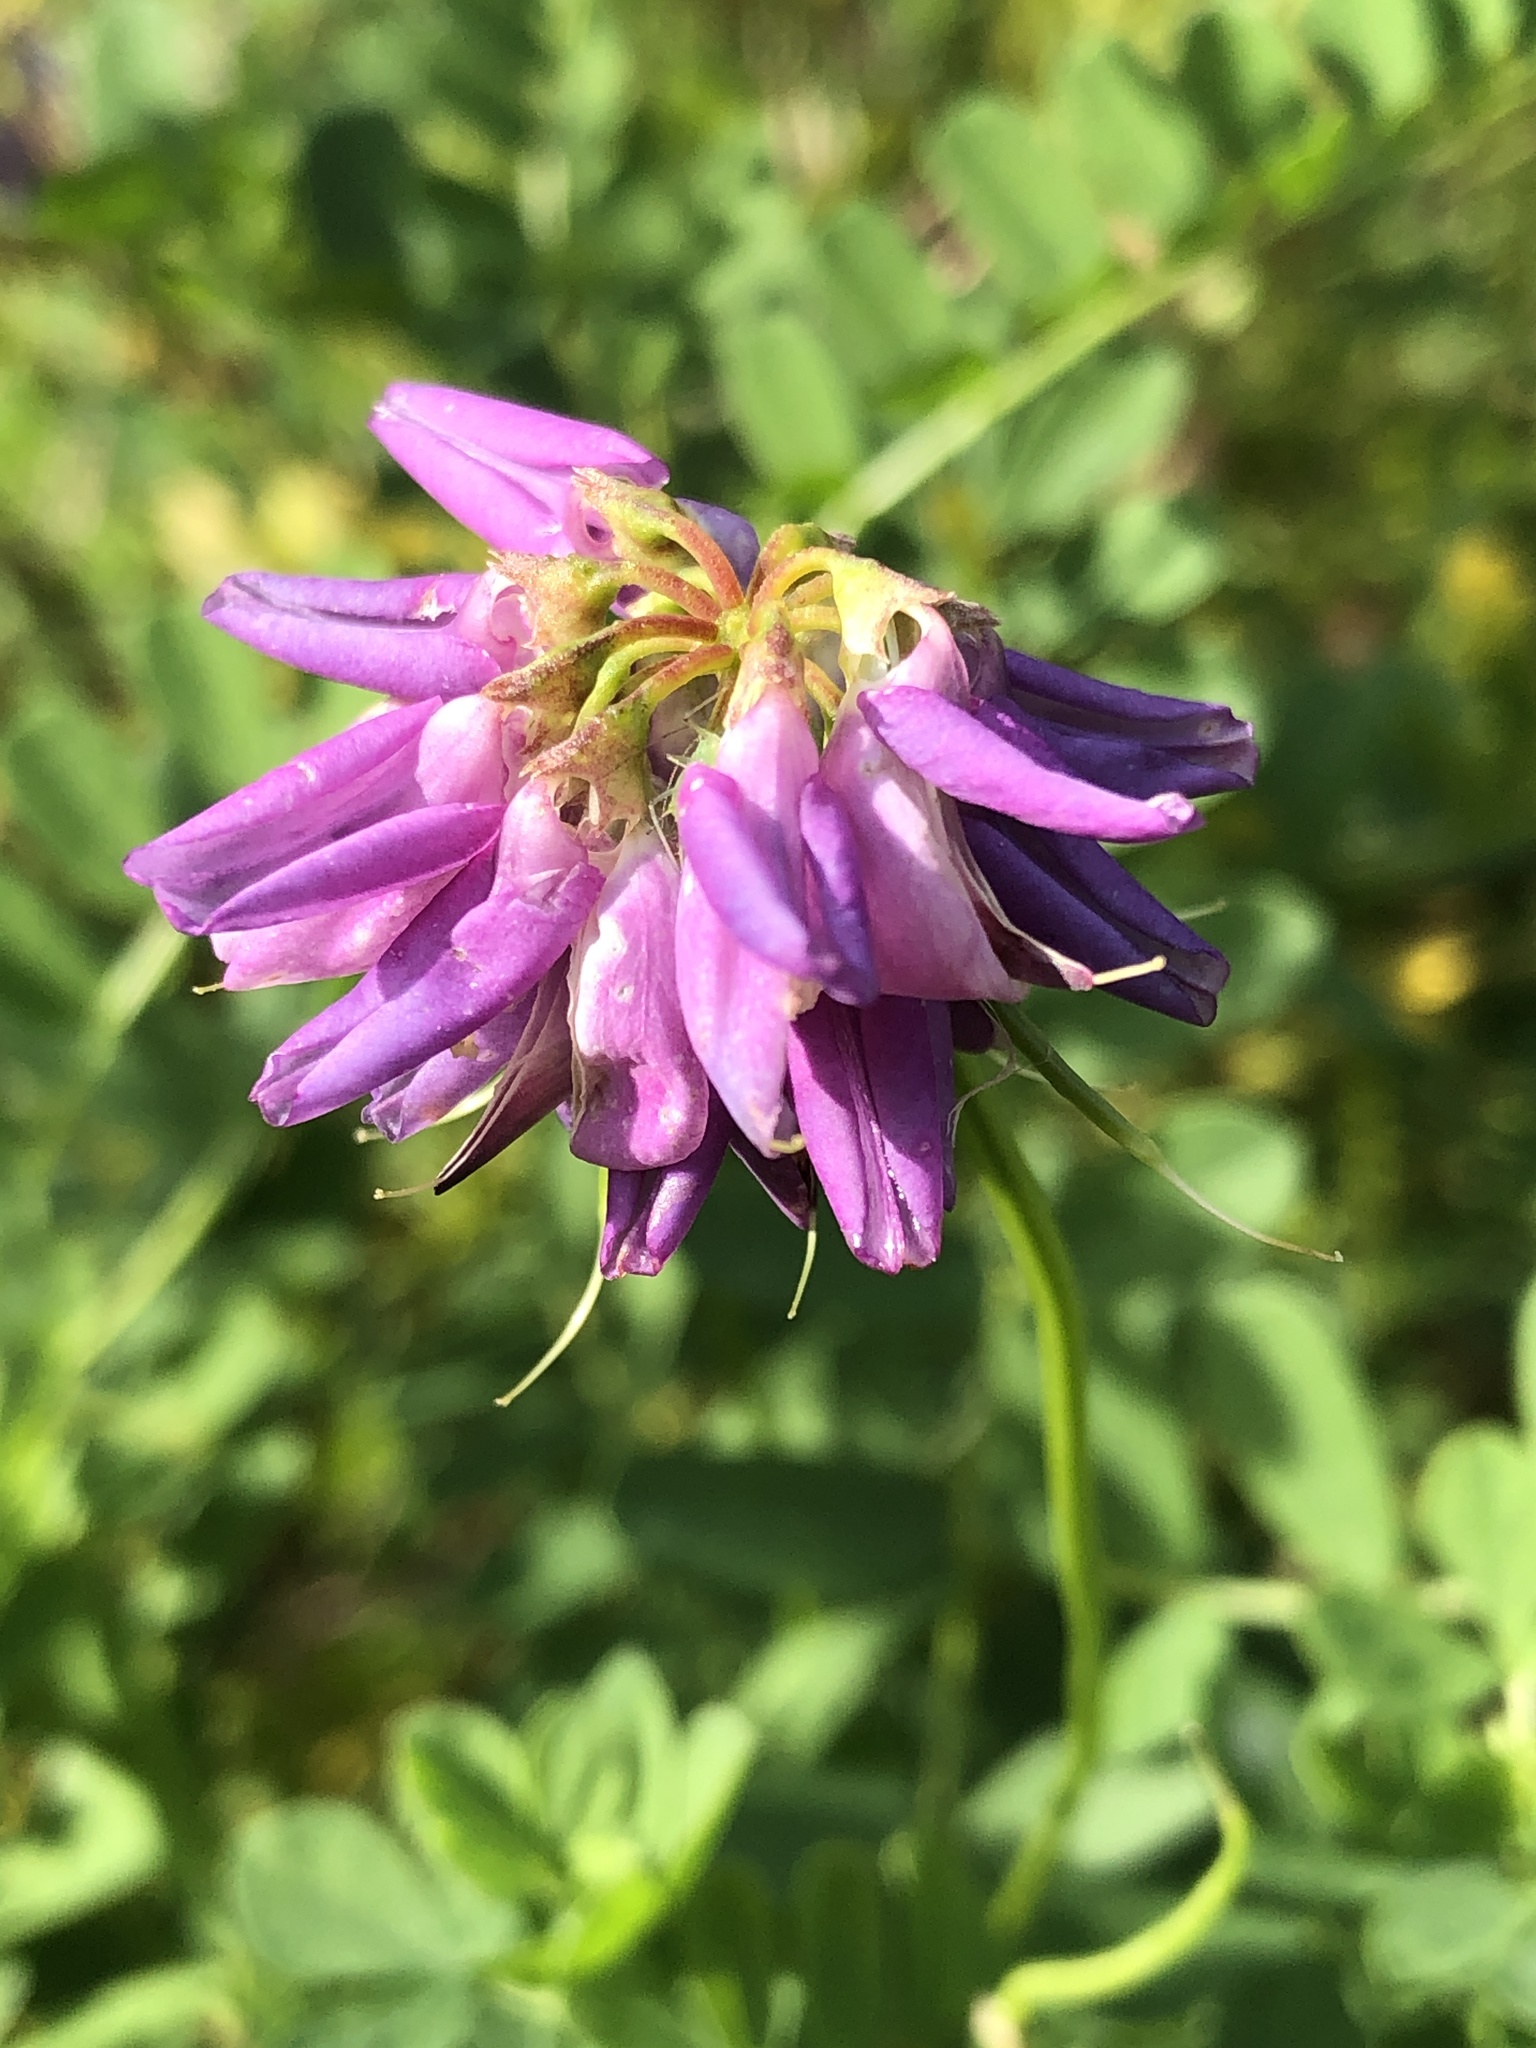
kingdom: Plantae
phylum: Tracheophyta
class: Magnoliopsida
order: Fabales
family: Fabaceae
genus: Coronilla
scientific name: Coronilla varia
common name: Crownvetch
